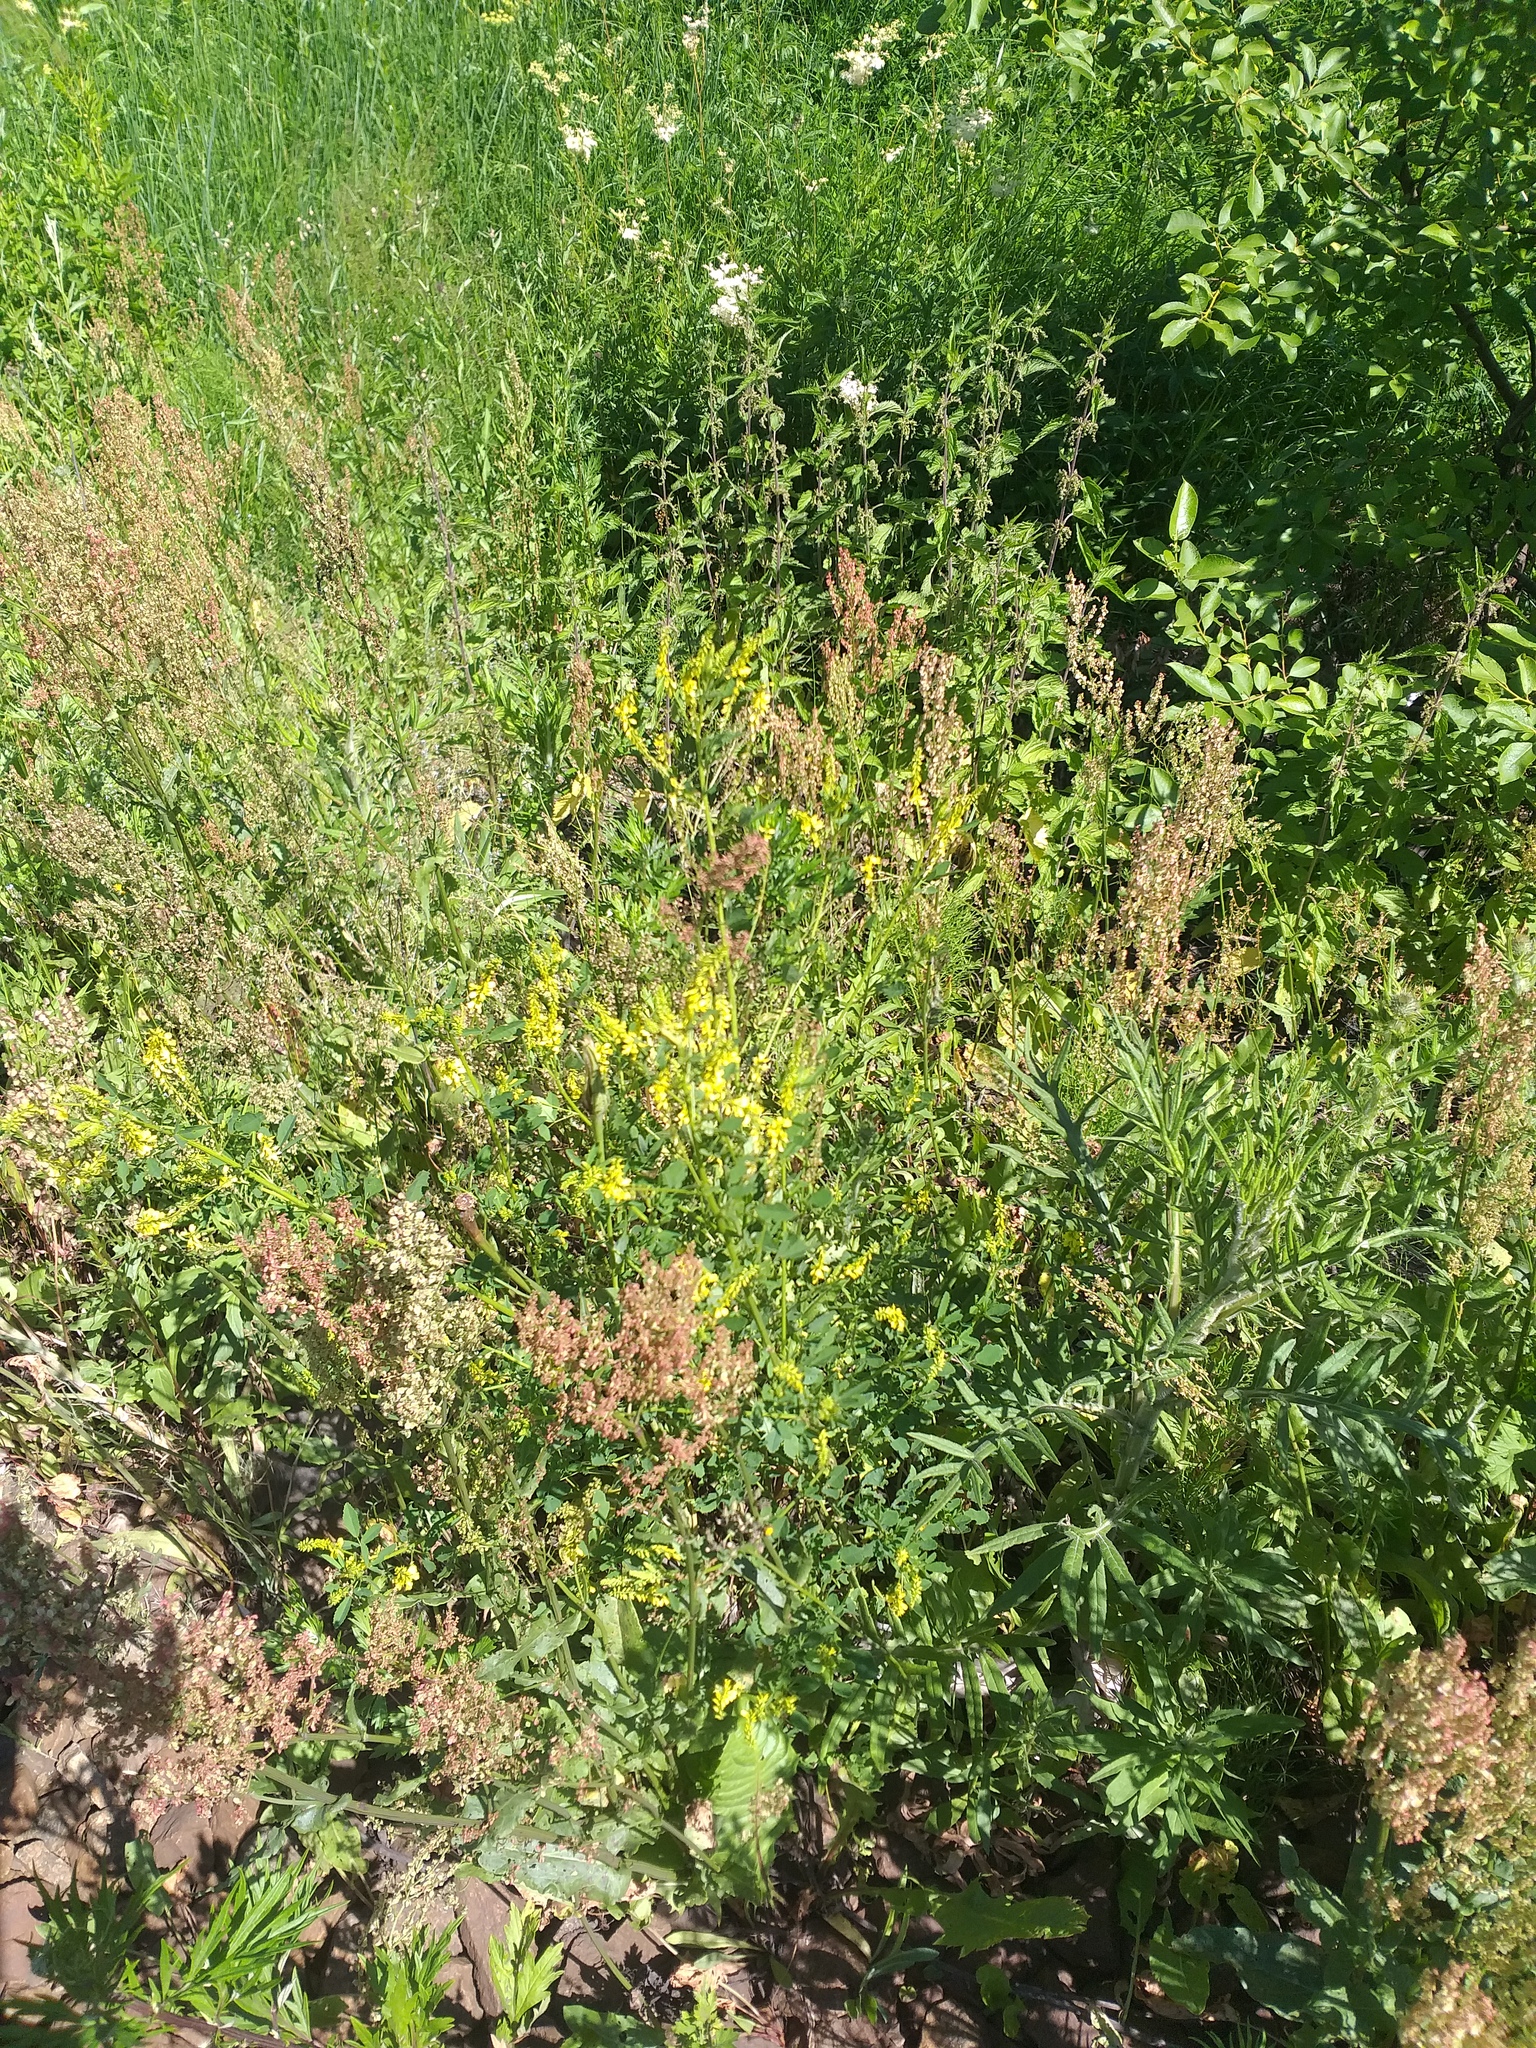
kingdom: Plantae
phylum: Tracheophyta
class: Magnoliopsida
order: Fabales
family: Fabaceae
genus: Melilotus
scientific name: Melilotus officinalis
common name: Sweetclover
